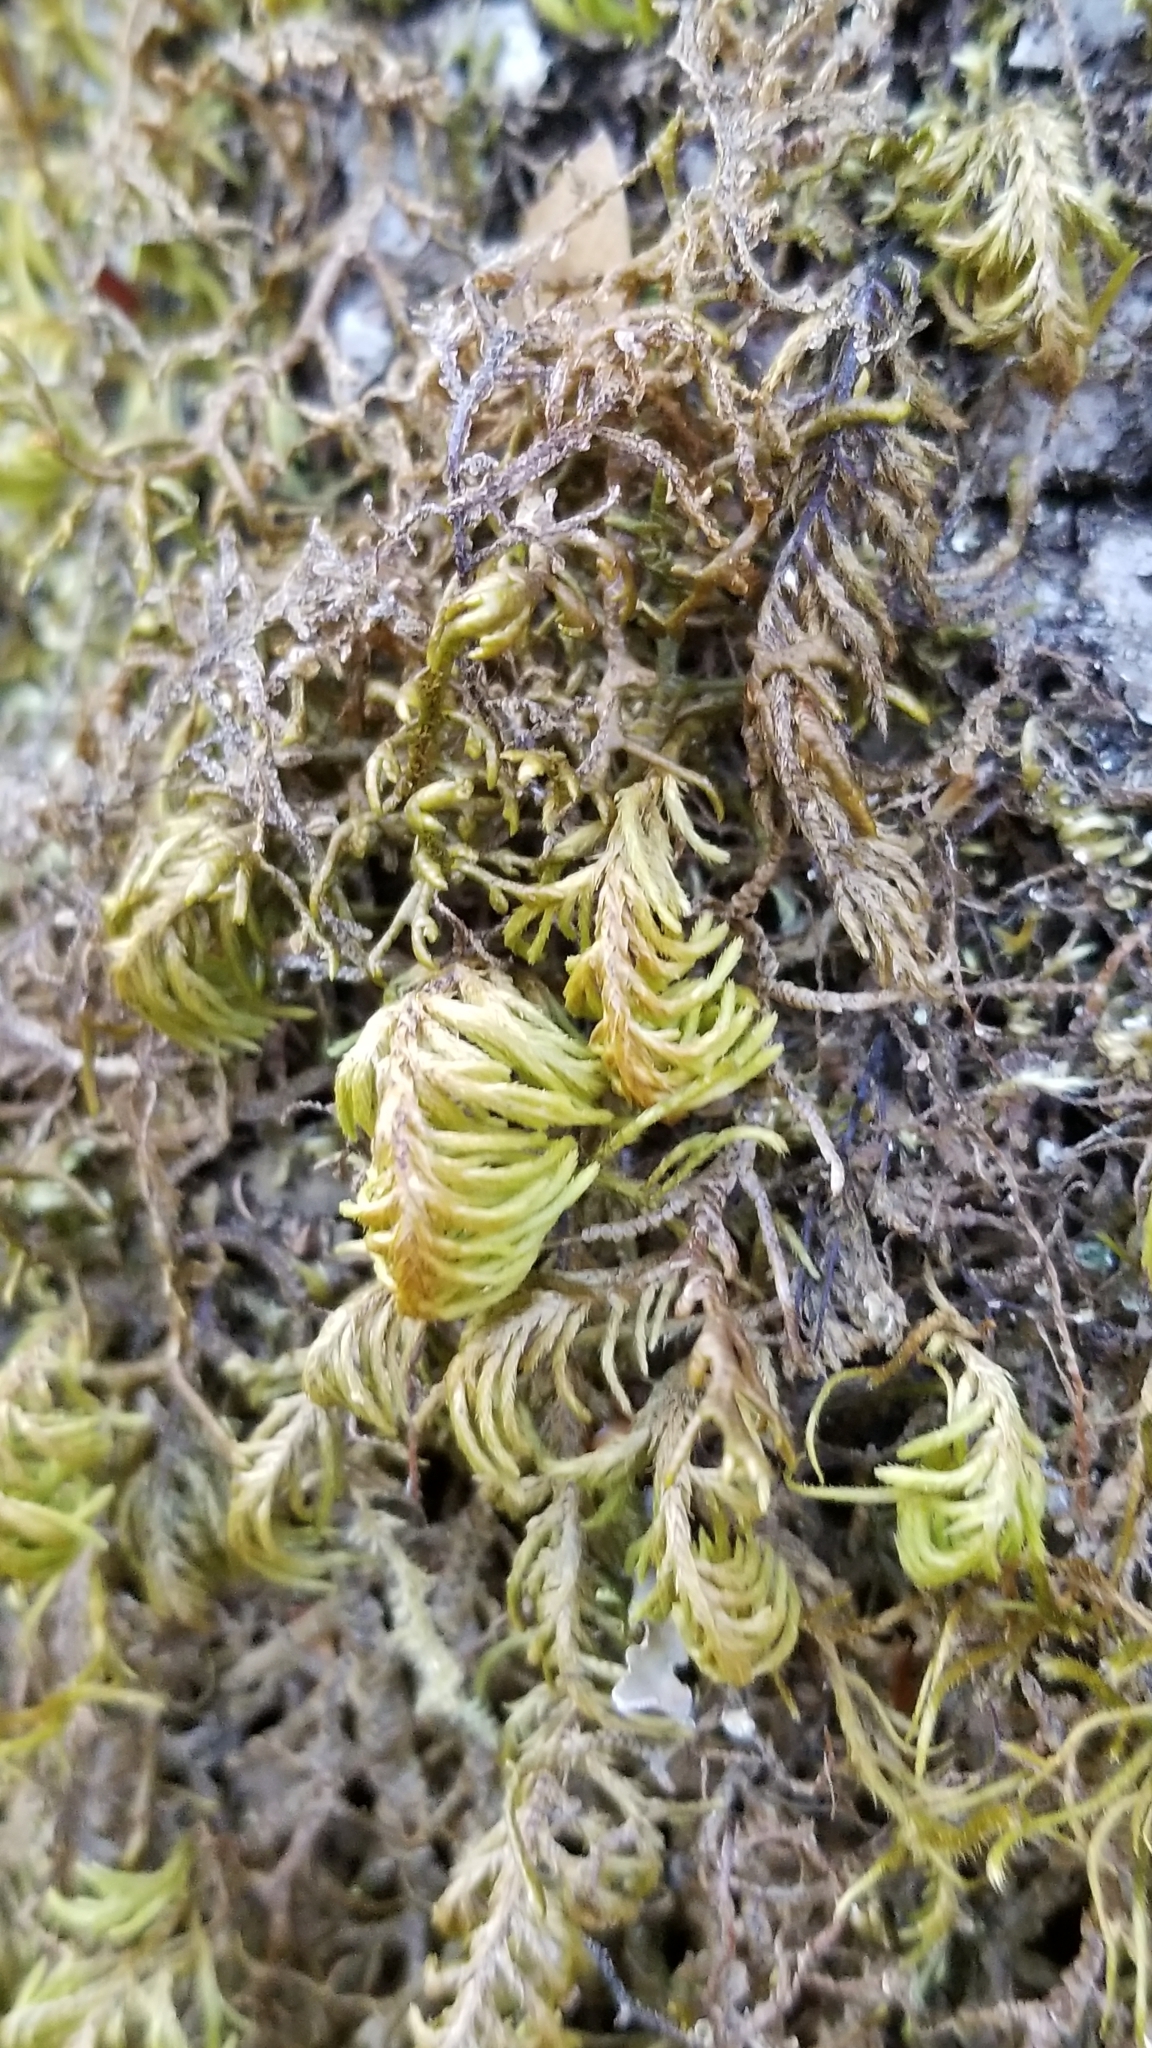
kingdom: Plantae
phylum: Bryophyta
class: Bryopsida
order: Hypnales
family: Cryphaeaceae
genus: Dendroalsia
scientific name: Dendroalsia abietina
